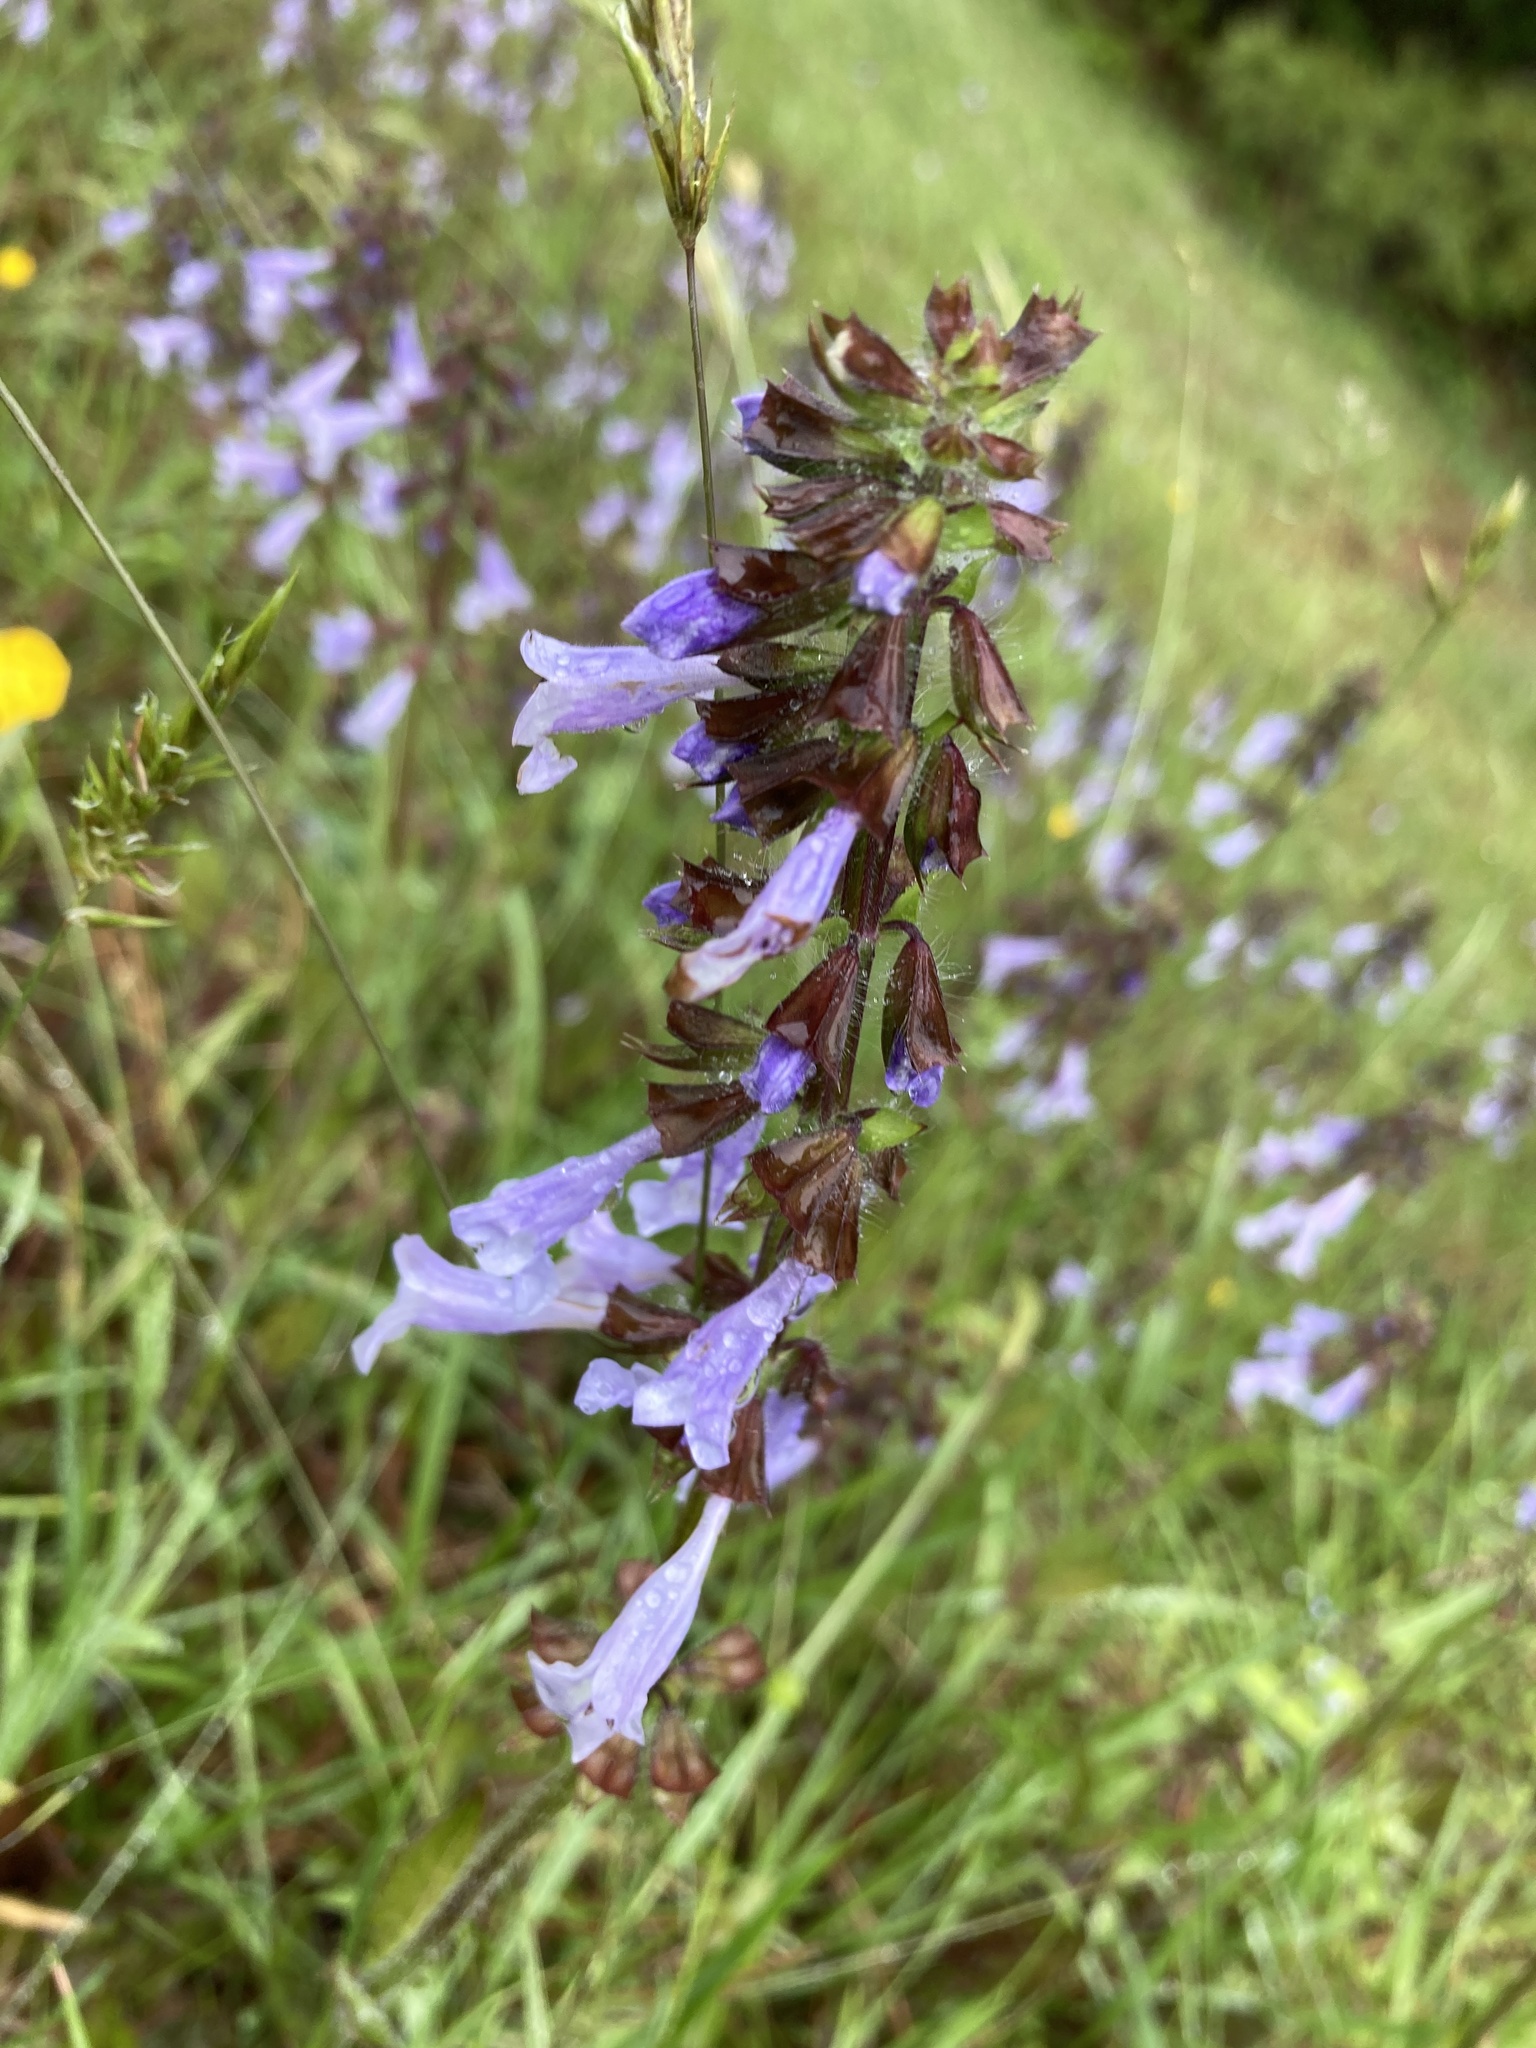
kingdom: Plantae
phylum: Tracheophyta
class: Magnoliopsida
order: Lamiales
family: Lamiaceae
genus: Salvia
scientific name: Salvia lyrata
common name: Cancerweed
